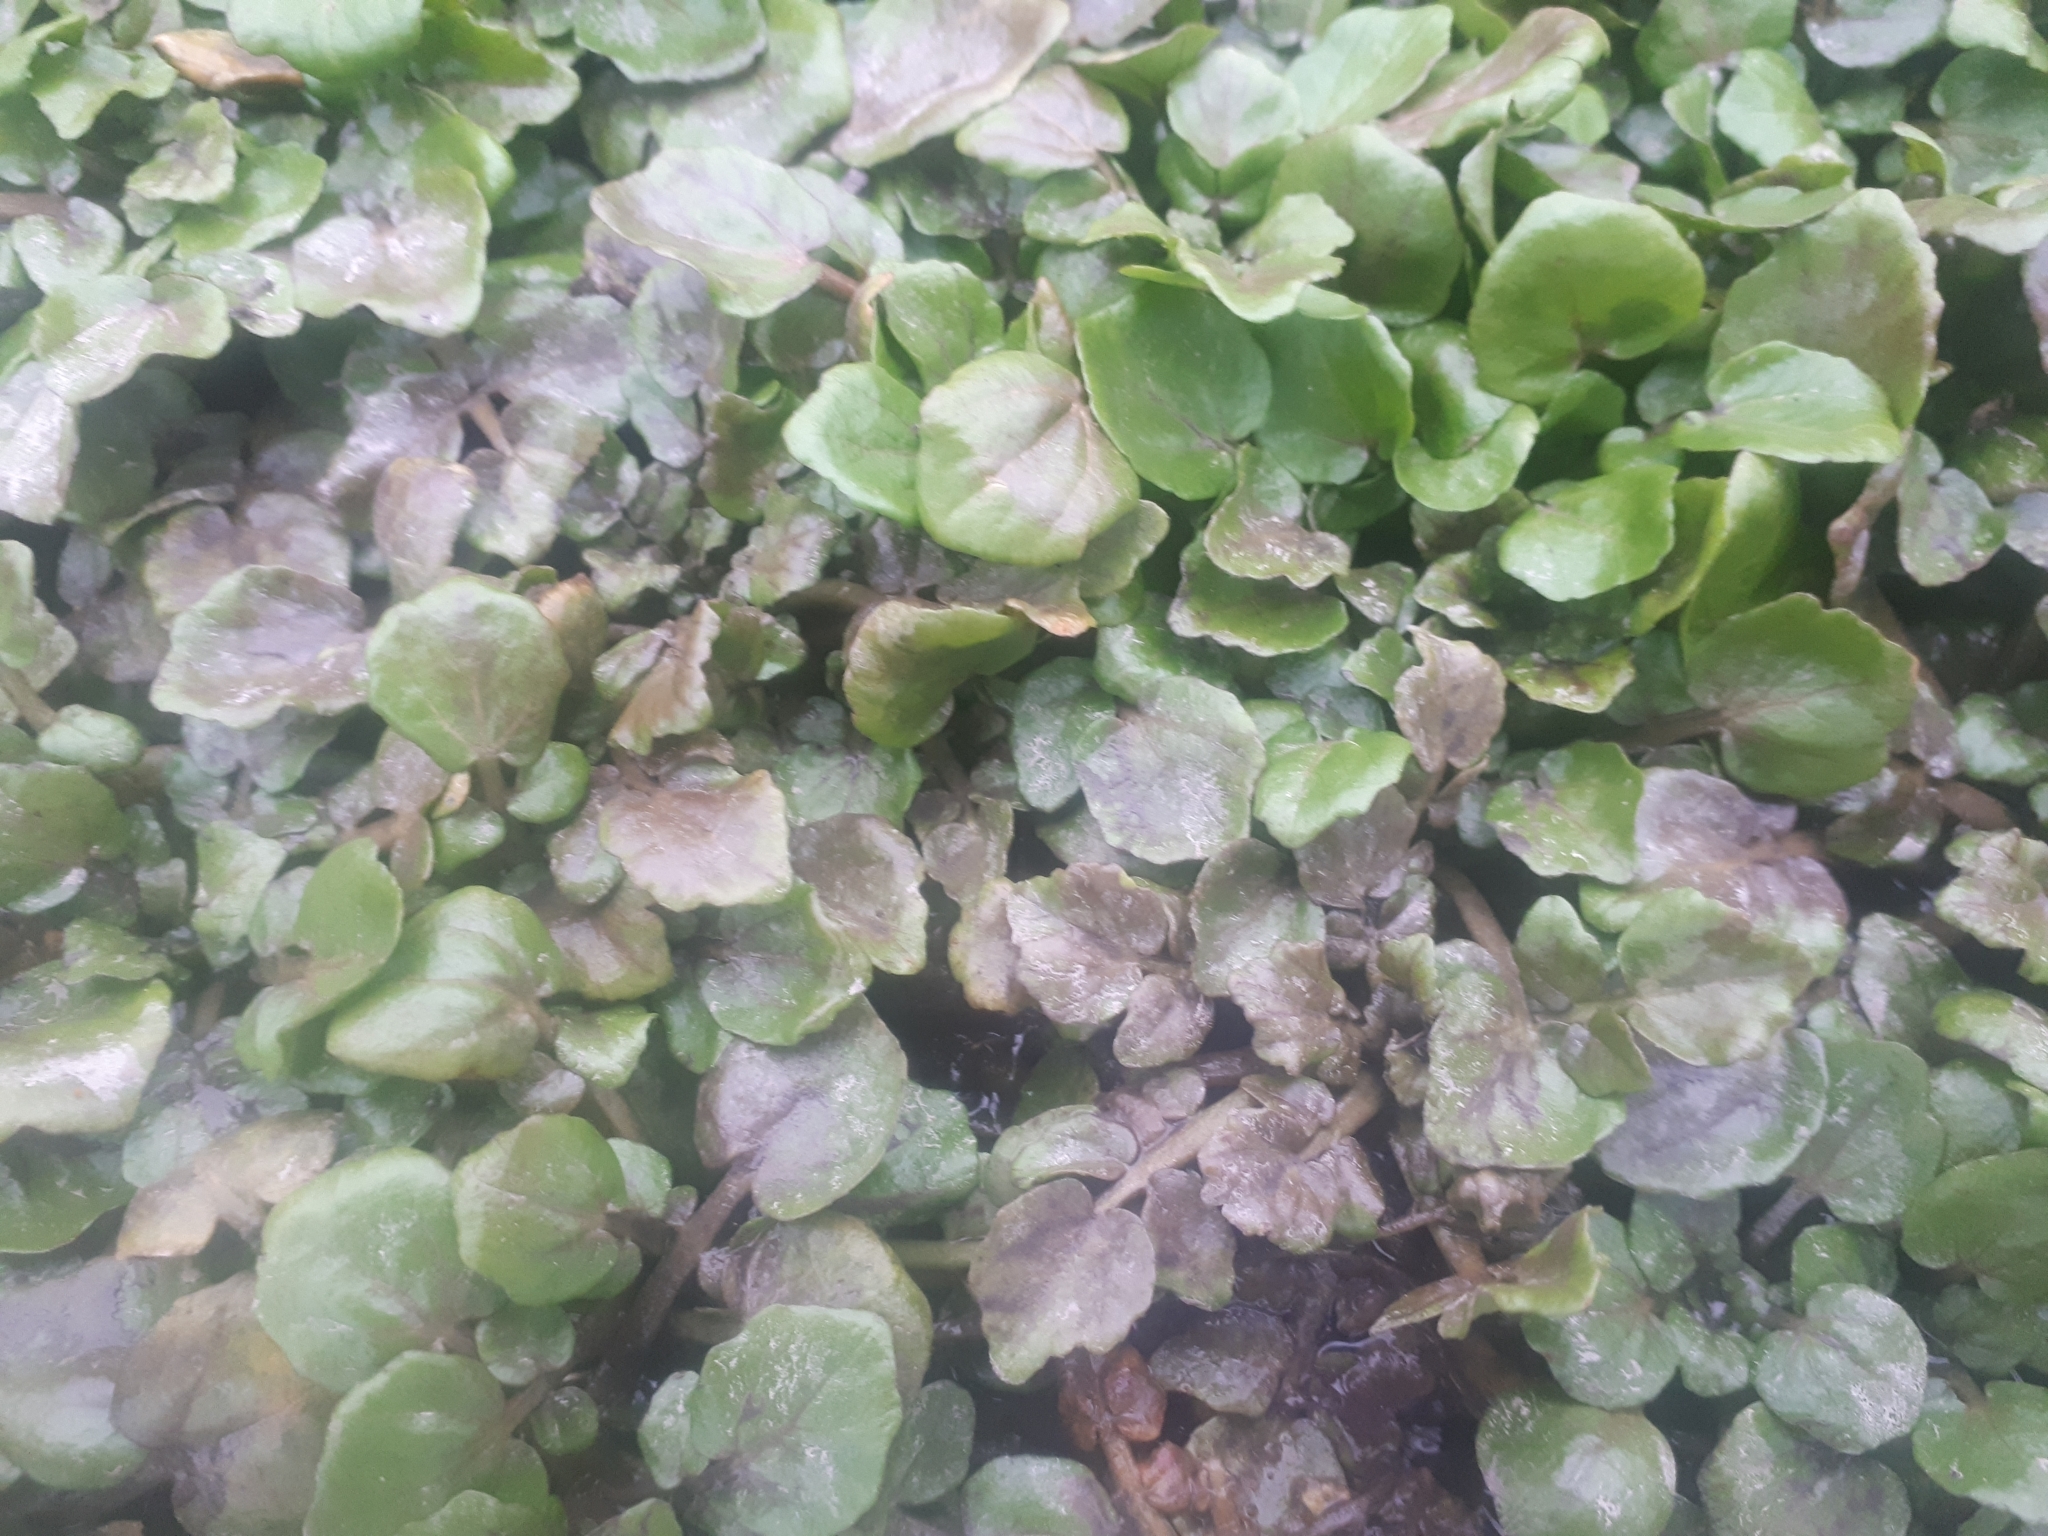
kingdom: Plantae
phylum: Tracheophyta
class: Magnoliopsida
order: Brassicales
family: Brassicaceae
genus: Nasturtium
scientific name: Nasturtium officinale
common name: Watercress
